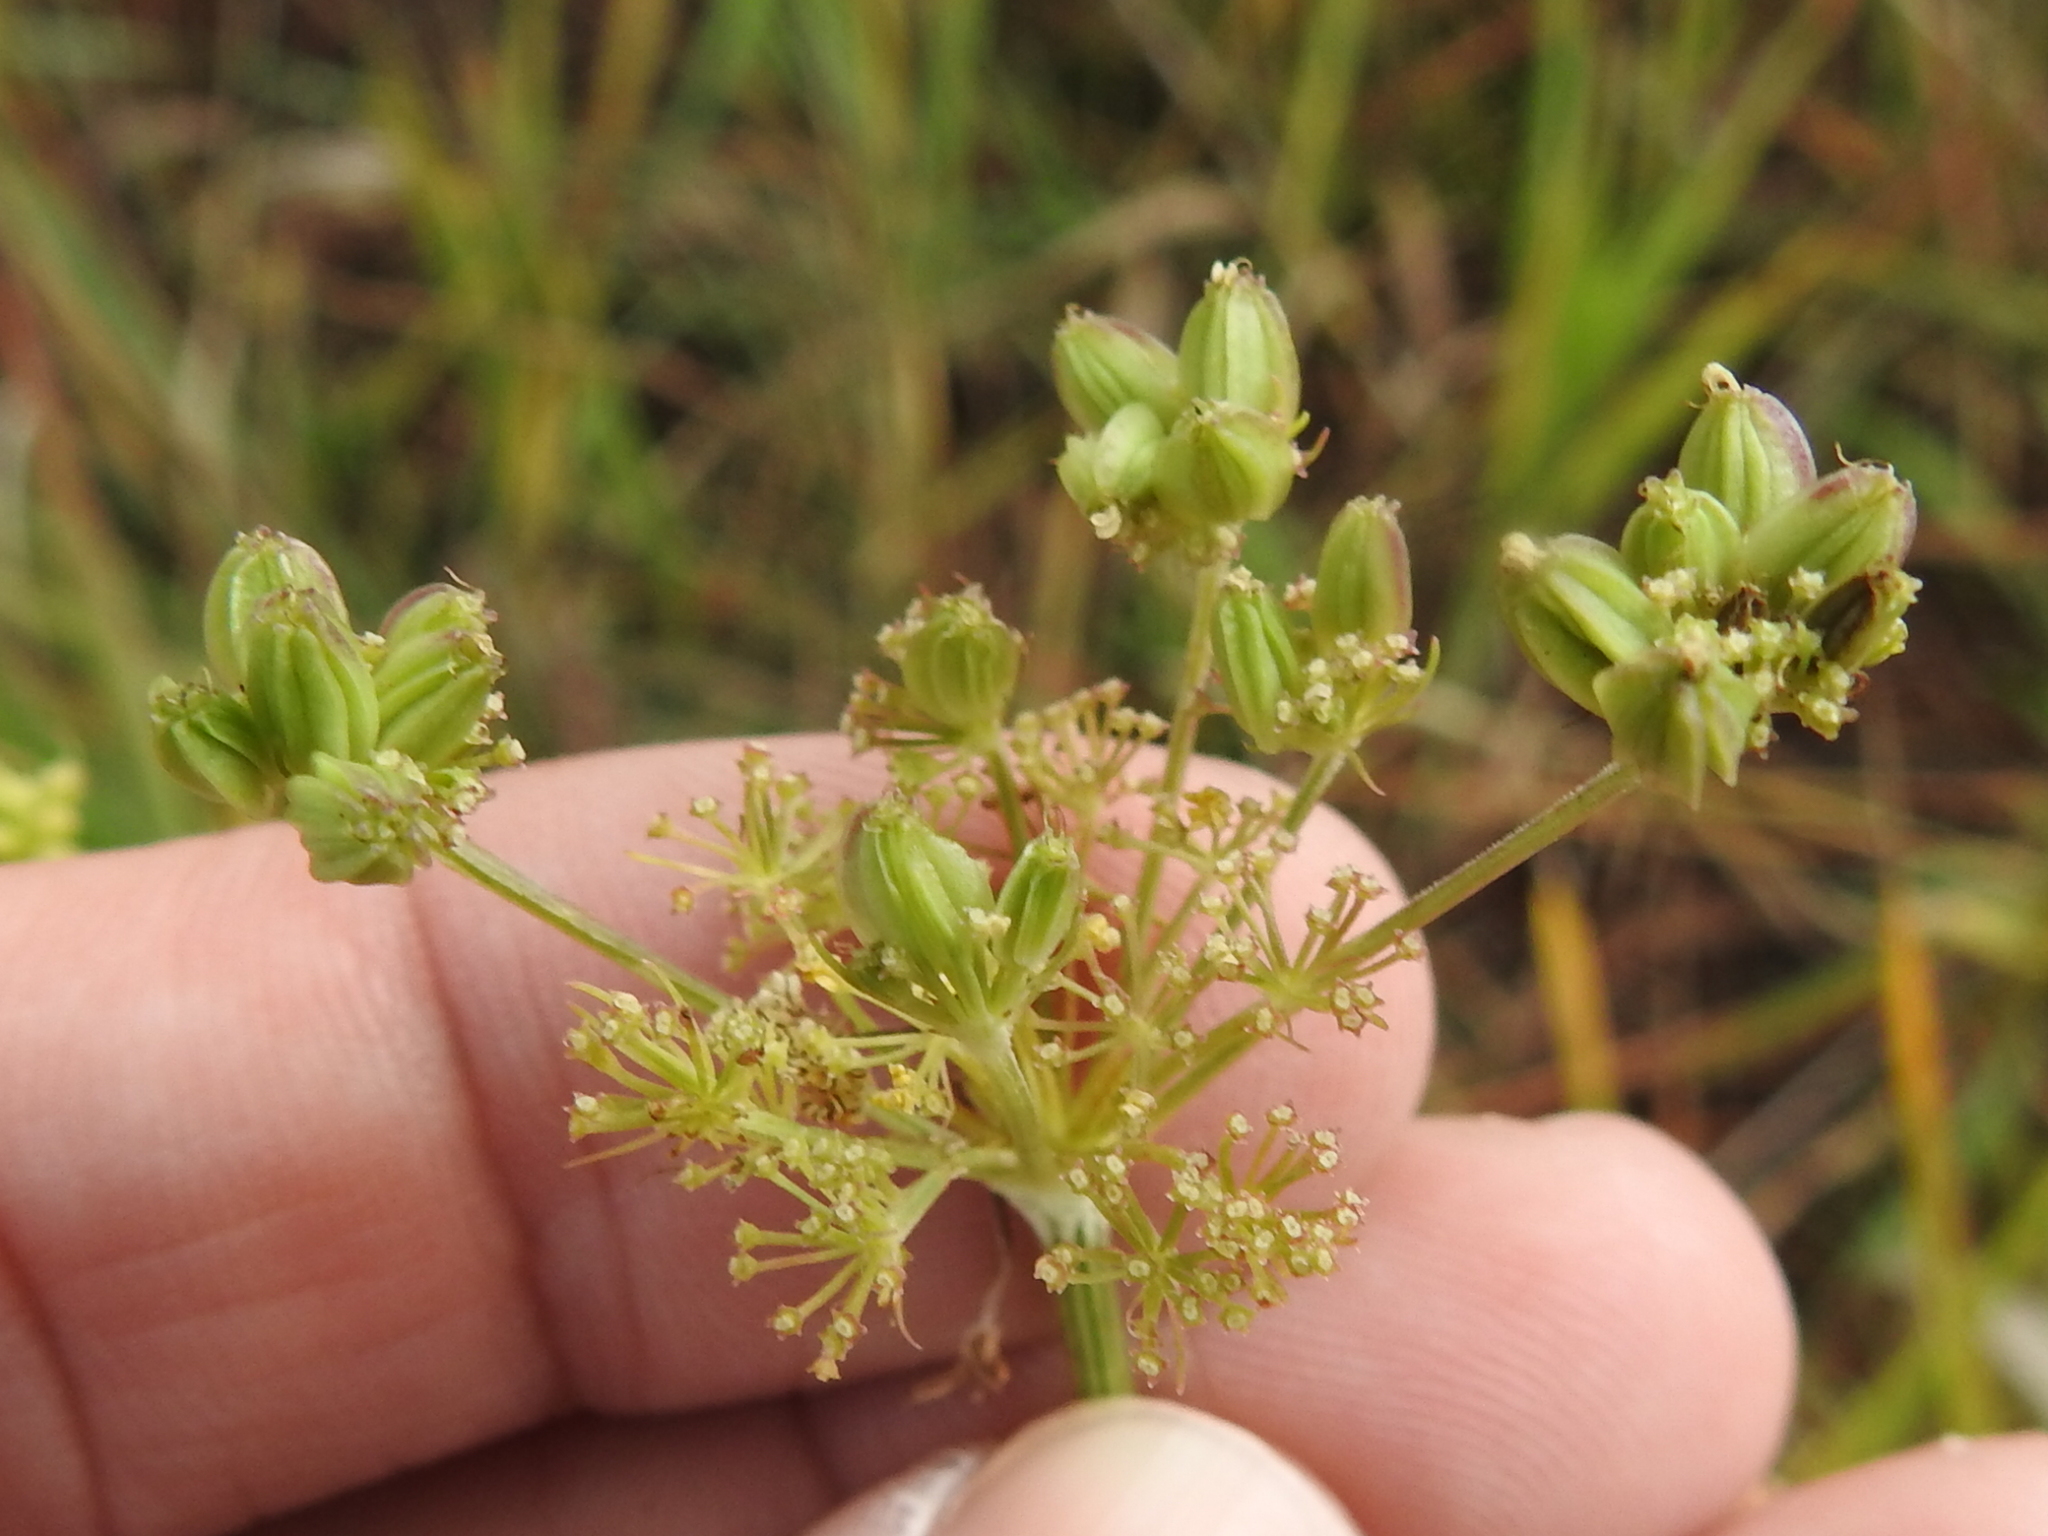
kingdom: Plantae
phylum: Tracheophyta
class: Magnoliopsida
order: Apiales
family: Apiaceae
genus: Cymopterus
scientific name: Cymopterus lemmonii
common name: Lemmon's spring-parsley
